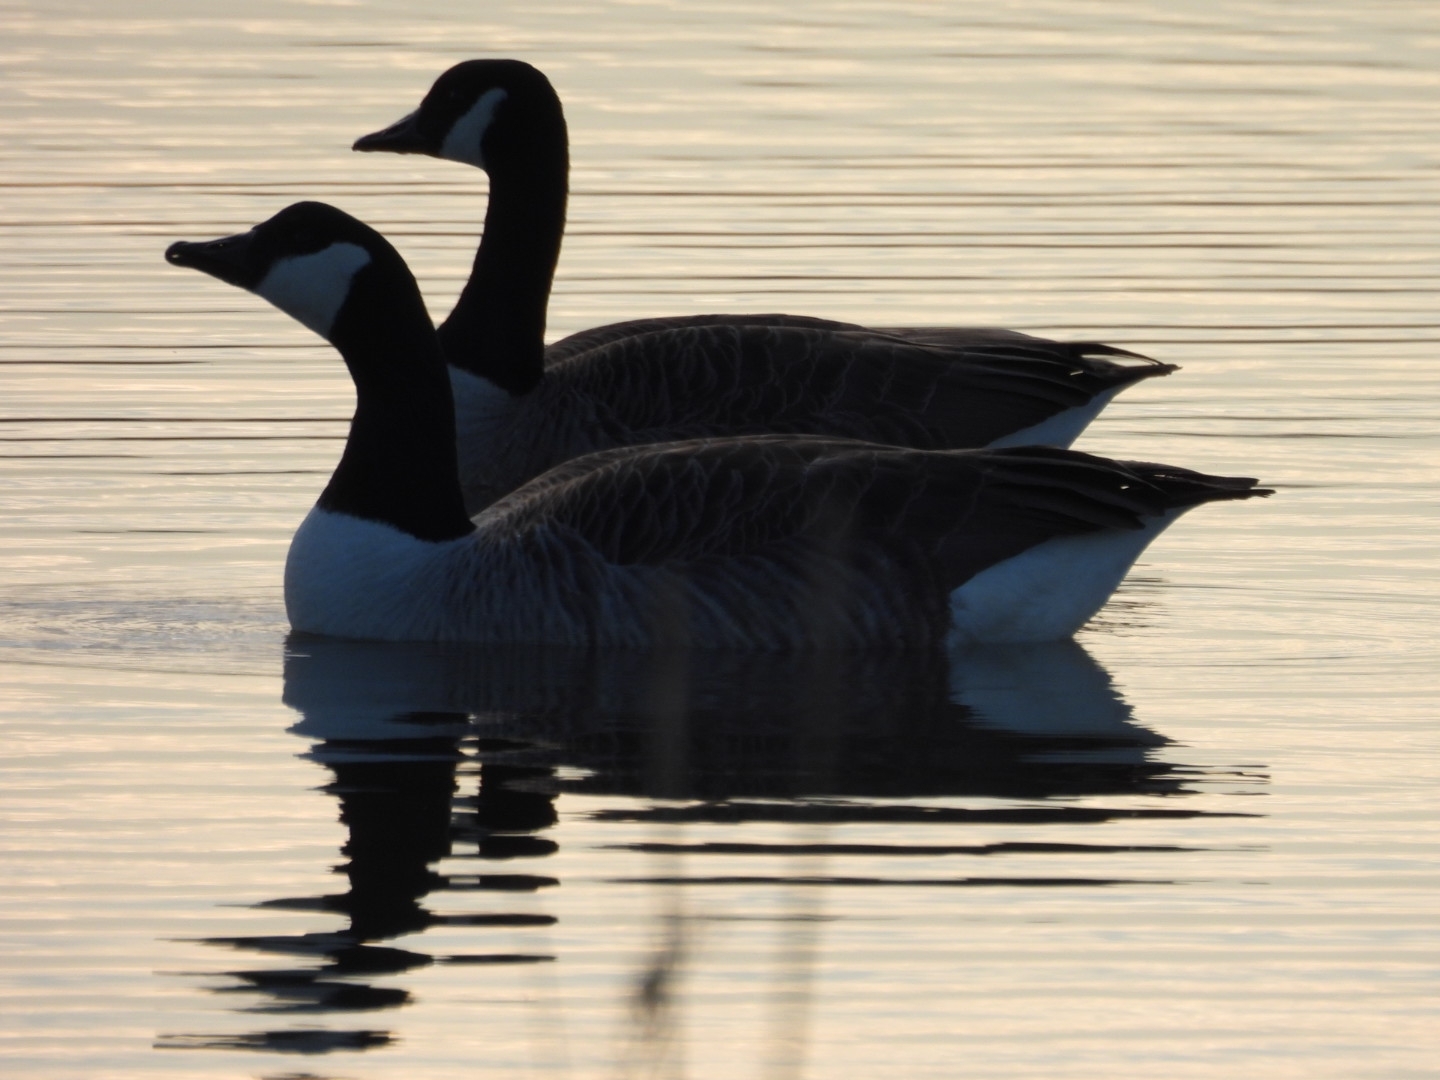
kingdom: Animalia
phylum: Chordata
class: Aves
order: Anseriformes
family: Anatidae
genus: Branta
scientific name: Branta canadensis
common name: Canada goose
